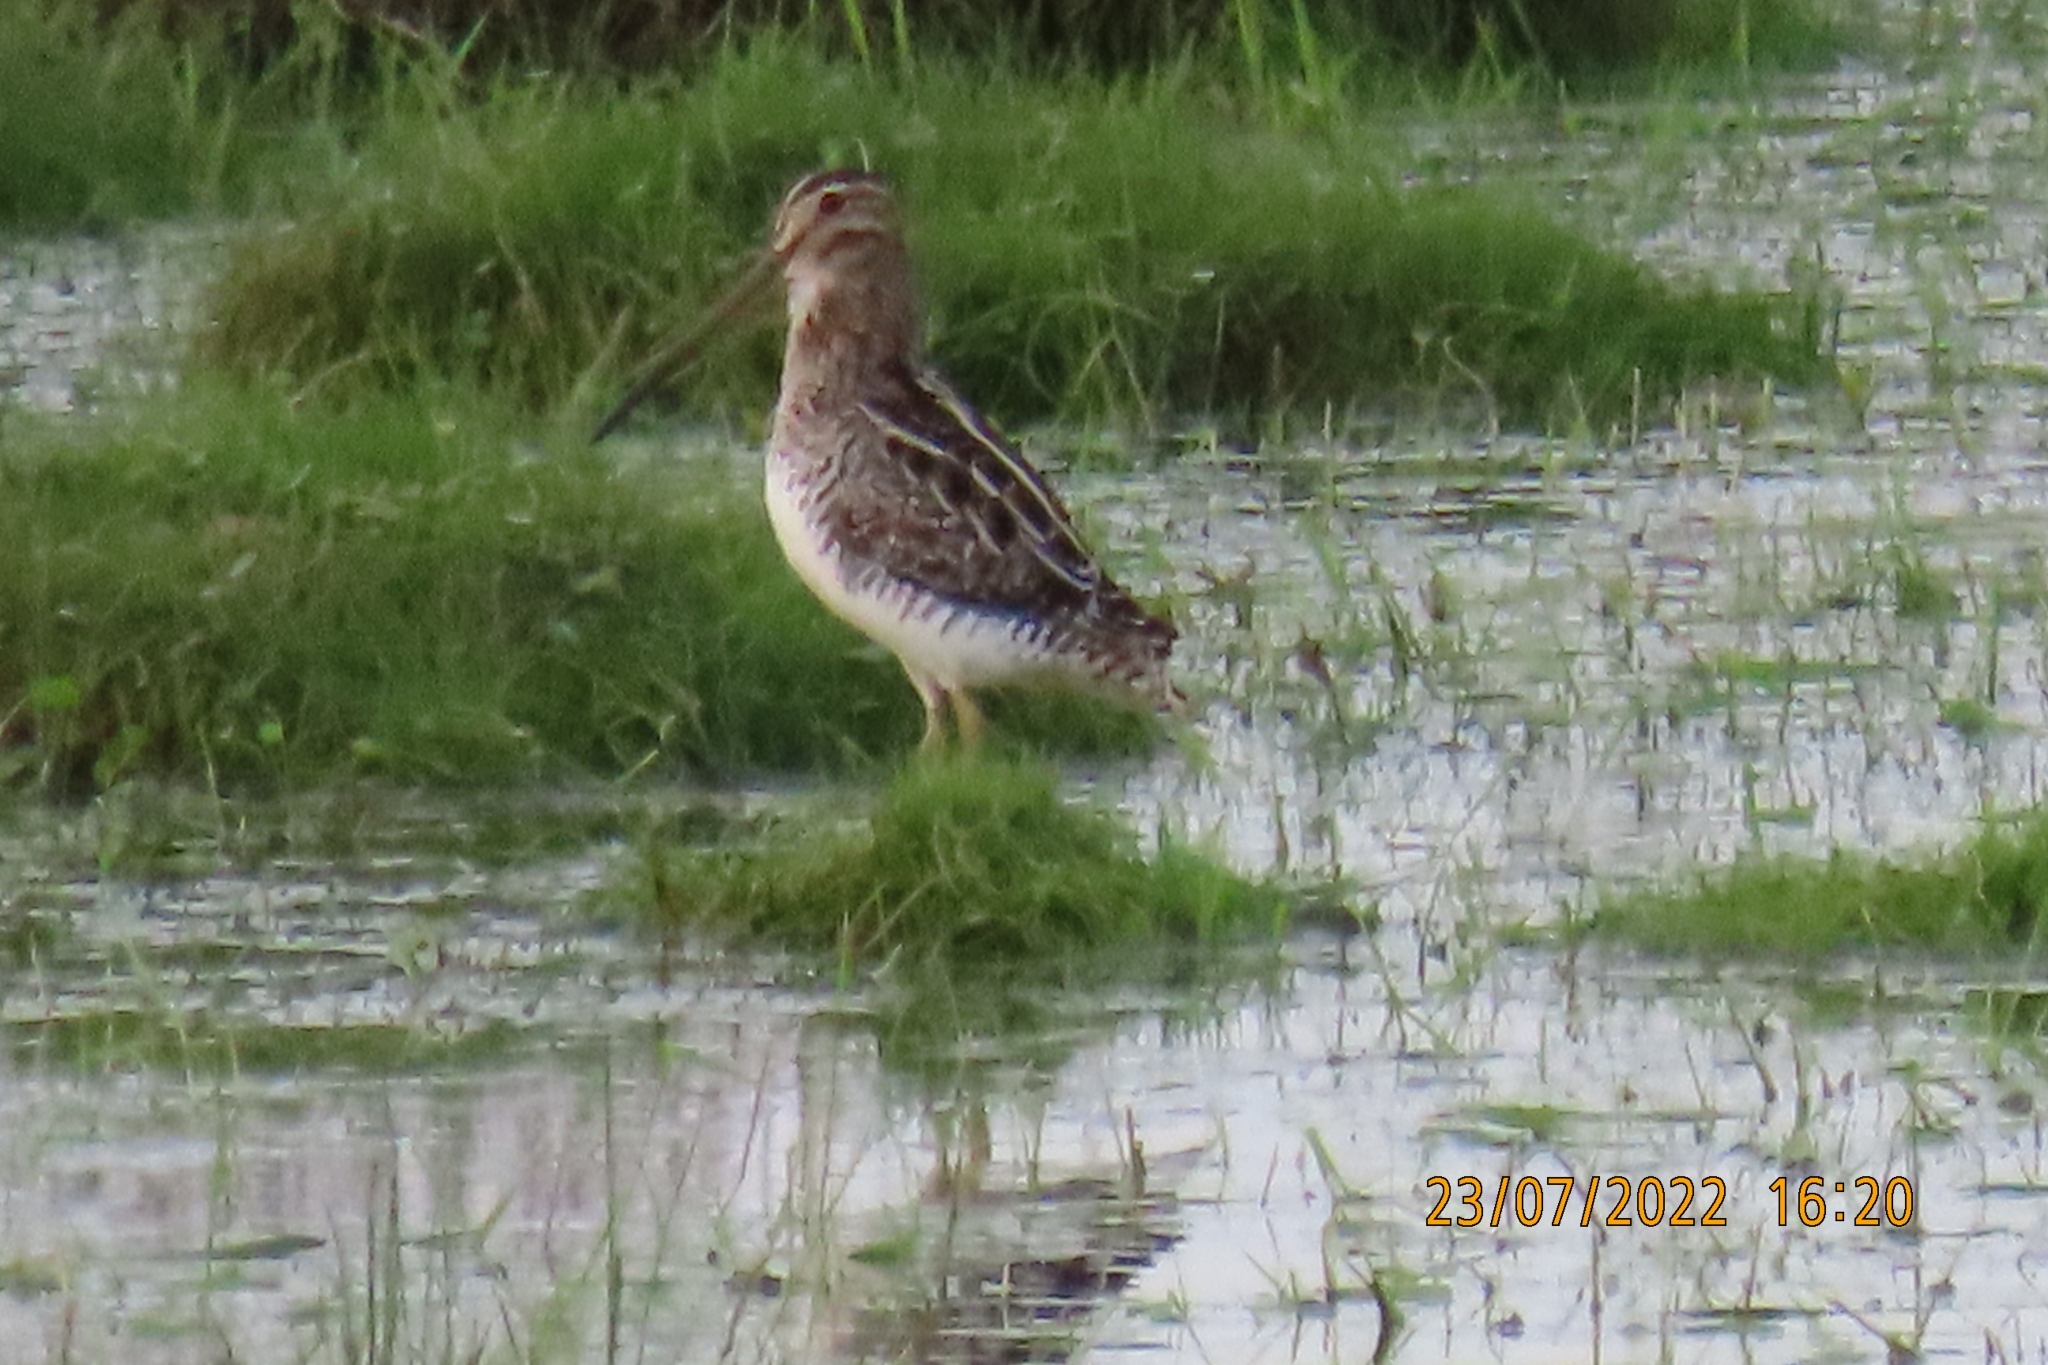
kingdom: Animalia
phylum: Chordata
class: Aves
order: Charadriiformes
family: Scolopacidae
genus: Gallinago
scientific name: Gallinago paraguaiae
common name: South american snipe
